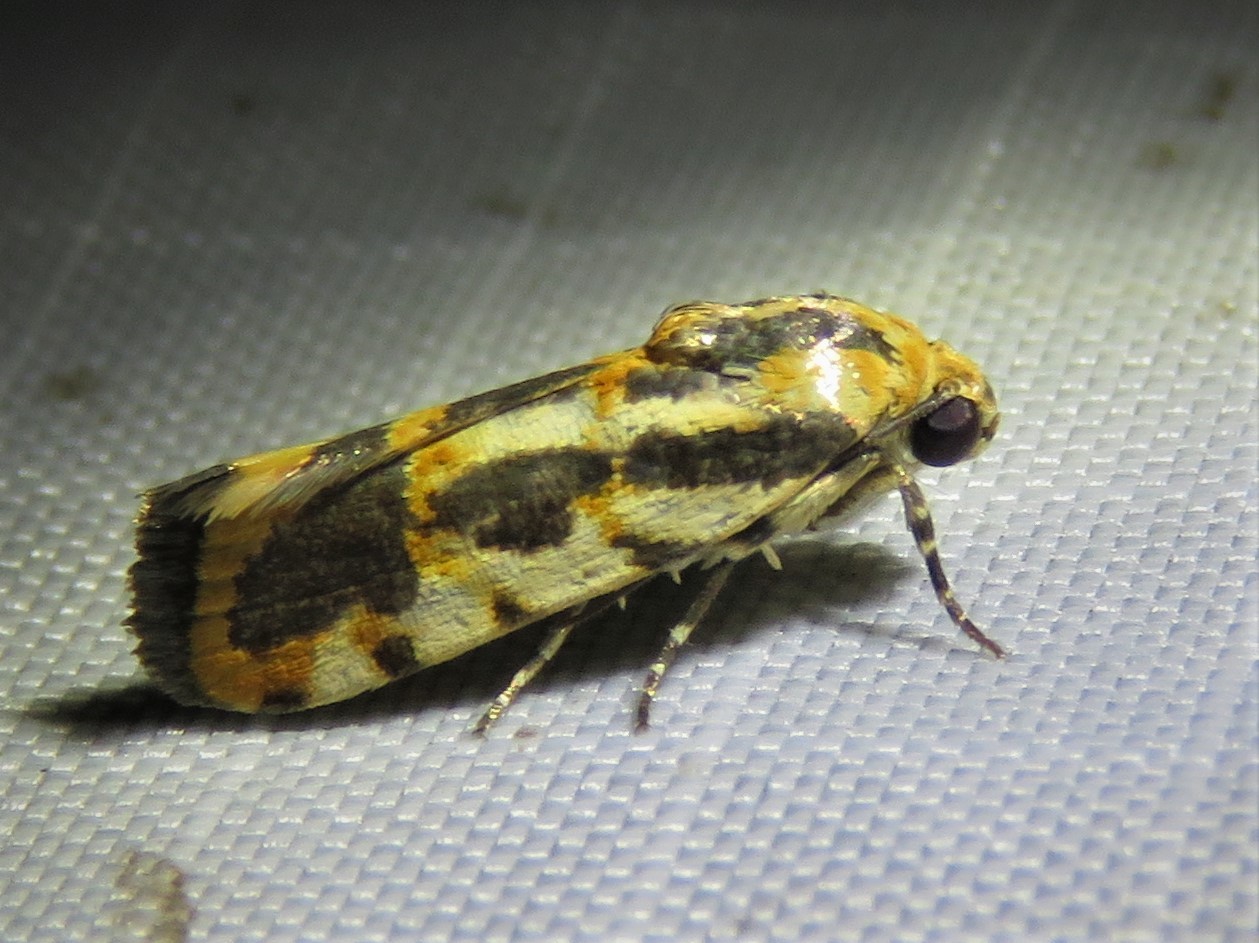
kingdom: Animalia
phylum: Arthropoda
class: Insecta
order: Lepidoptera
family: Noctuidae
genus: Acontia
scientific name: Acontia leo
